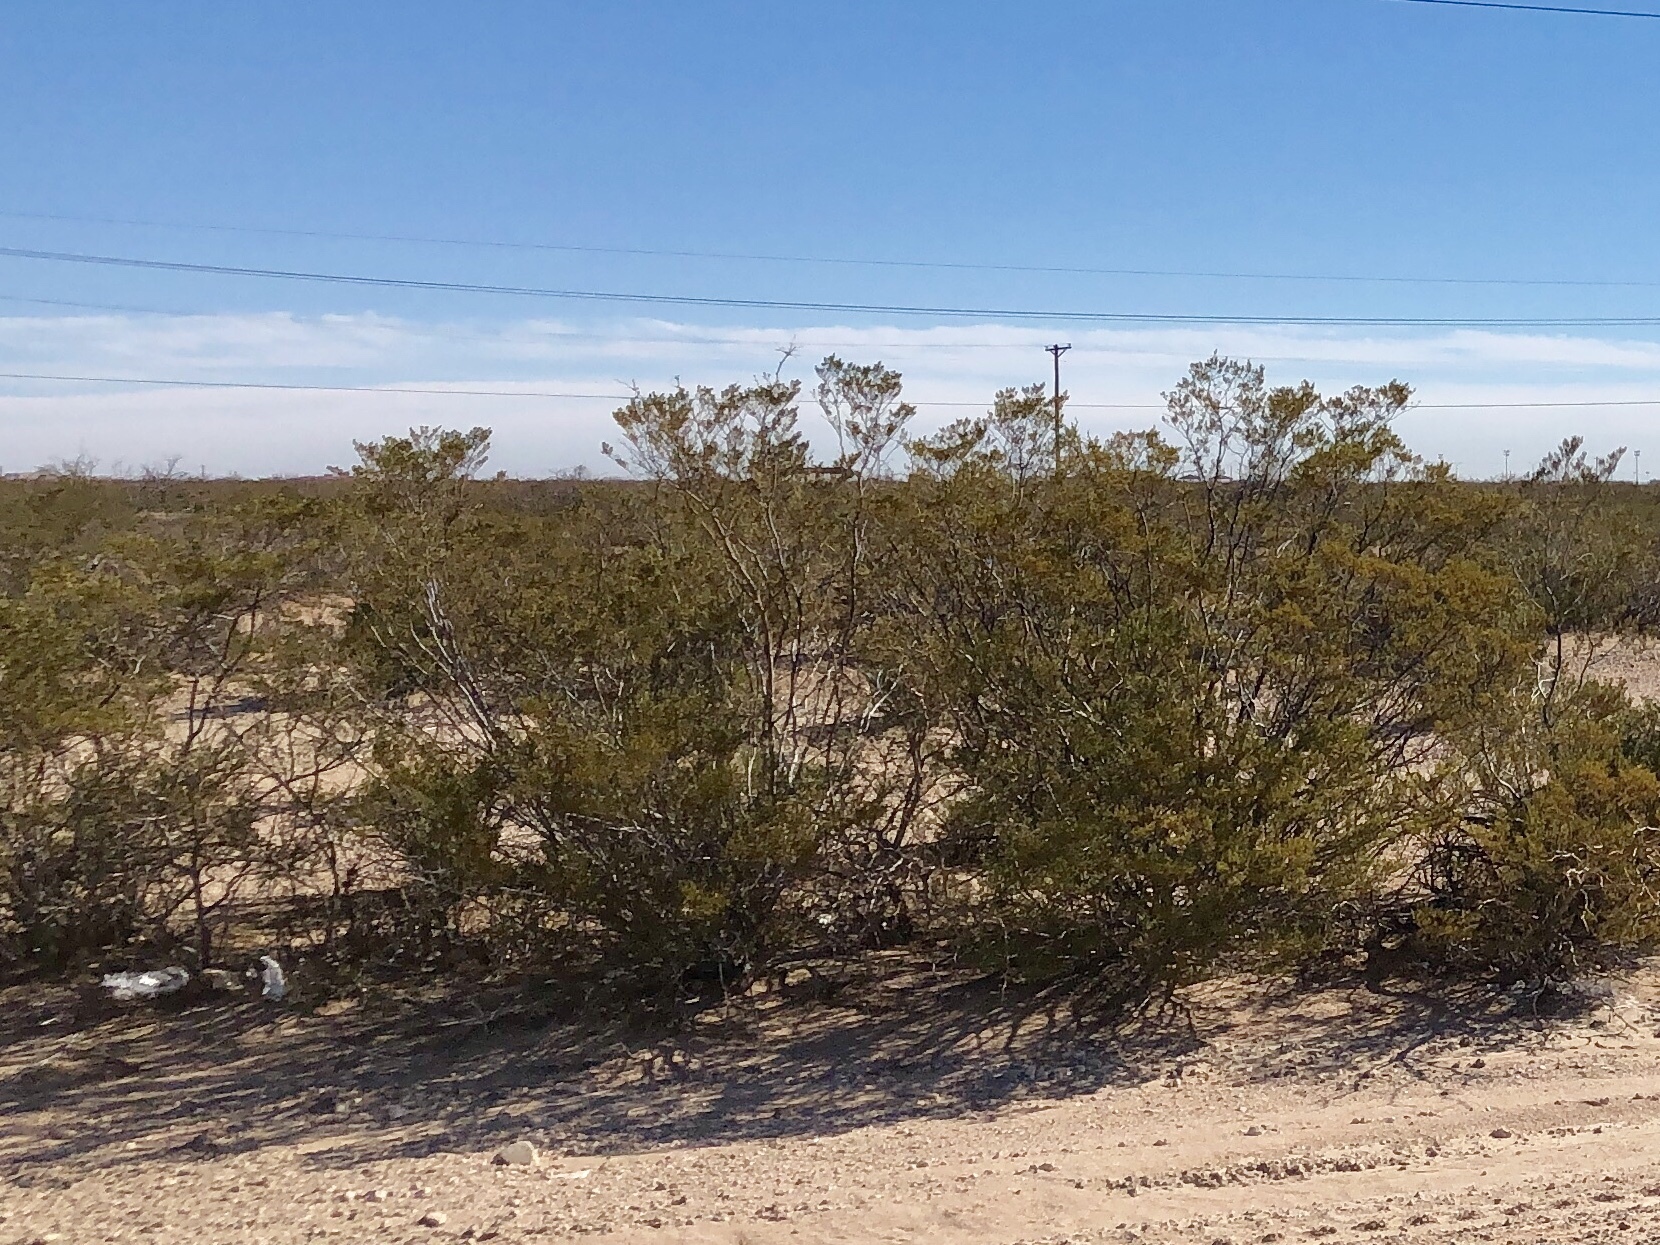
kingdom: Plantae
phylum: Tracheophyta
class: Magnoliopsida
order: Zygophyllales
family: Zygophyllaceae
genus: Larrea
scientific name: Larrea tridentata
